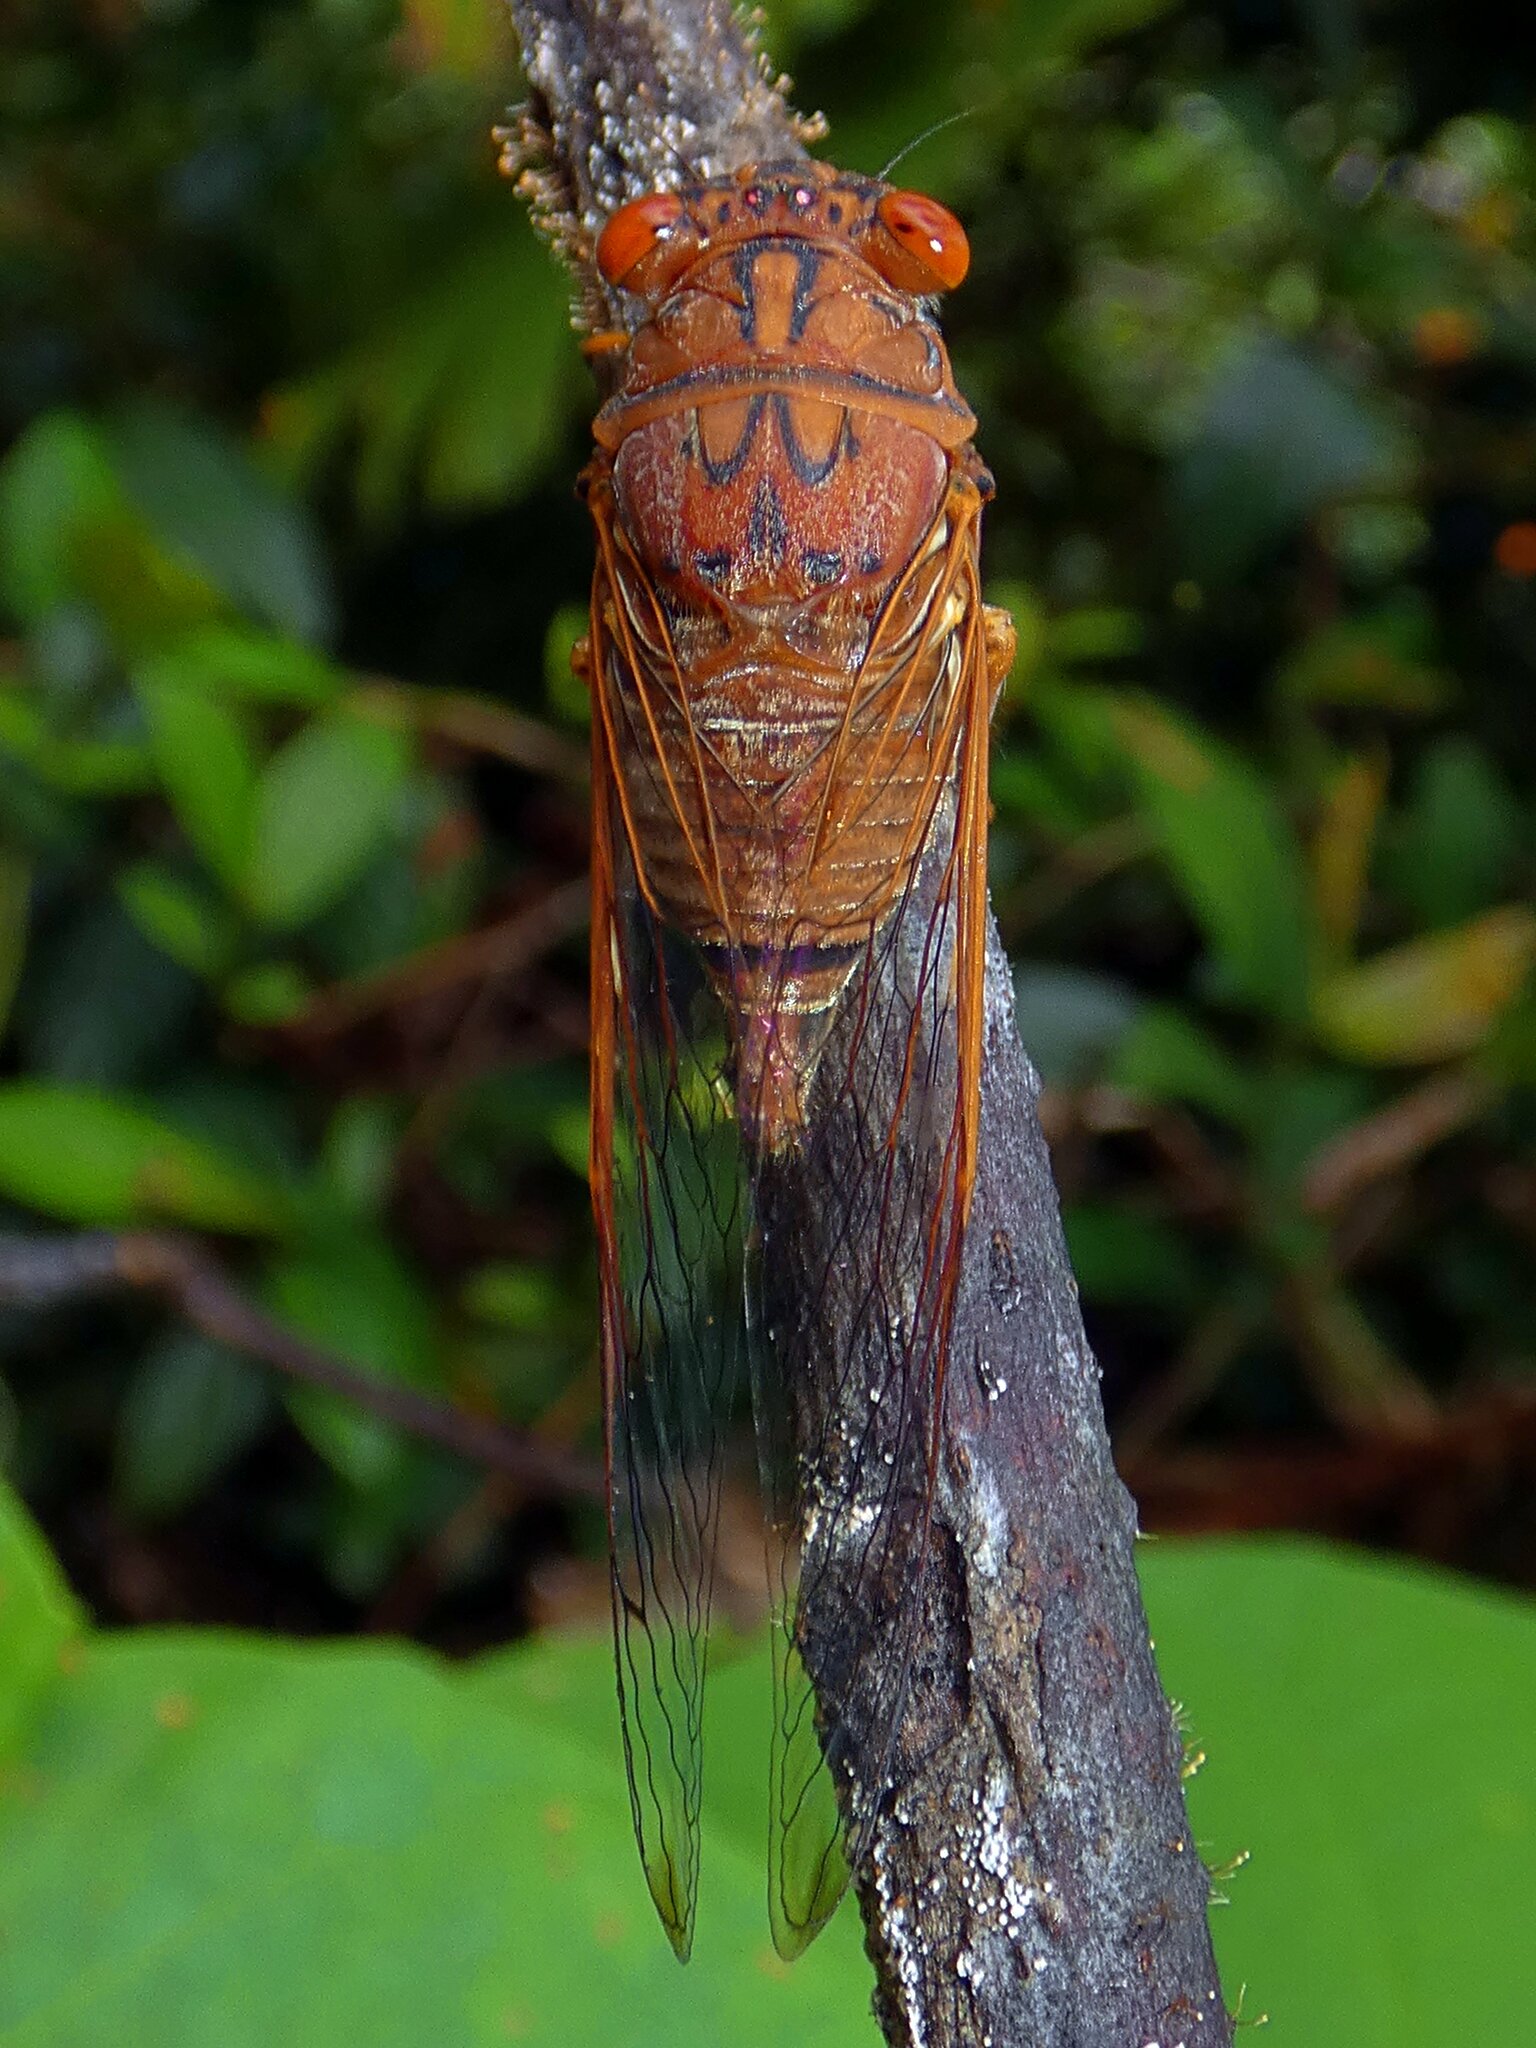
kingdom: Animalia
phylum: Arthropoda
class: Insecta
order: Hemiptera
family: Cicadidae
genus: Tamasa
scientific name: Tamasa doddi
